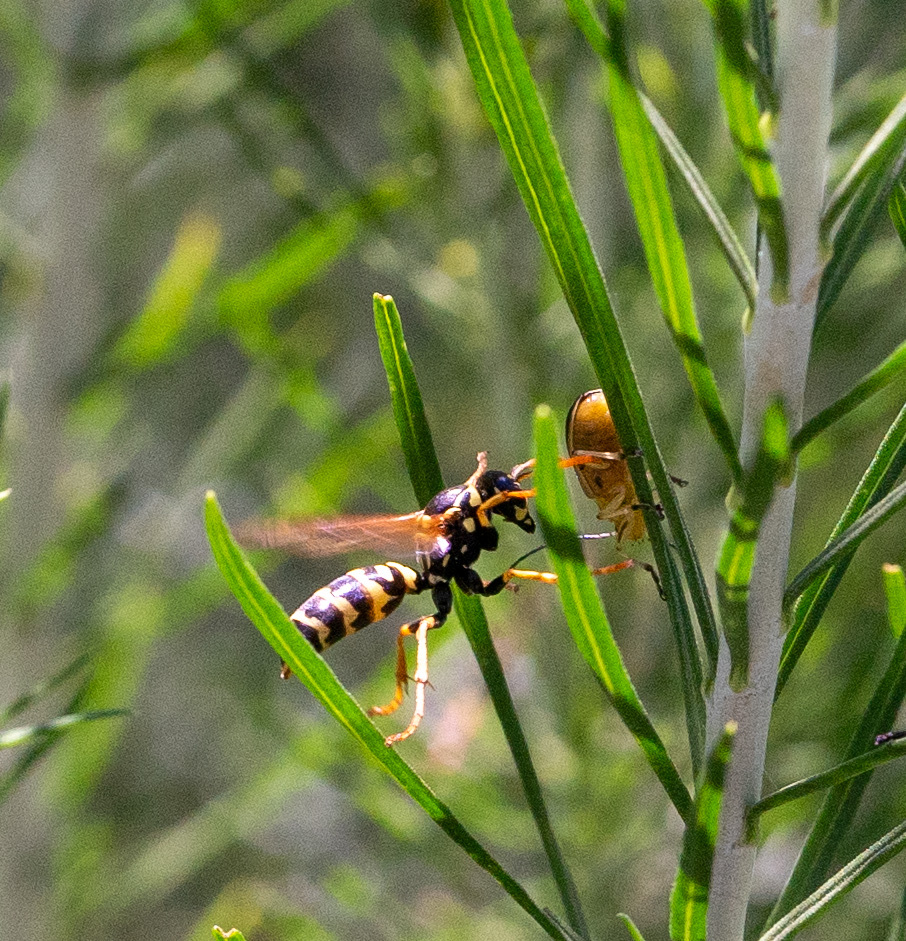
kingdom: Animalia
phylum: Arthropoda
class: Insecta
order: Hymenoptera
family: Eumenidae
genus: Polistes
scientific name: Polistes dominula
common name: Paper wasp
